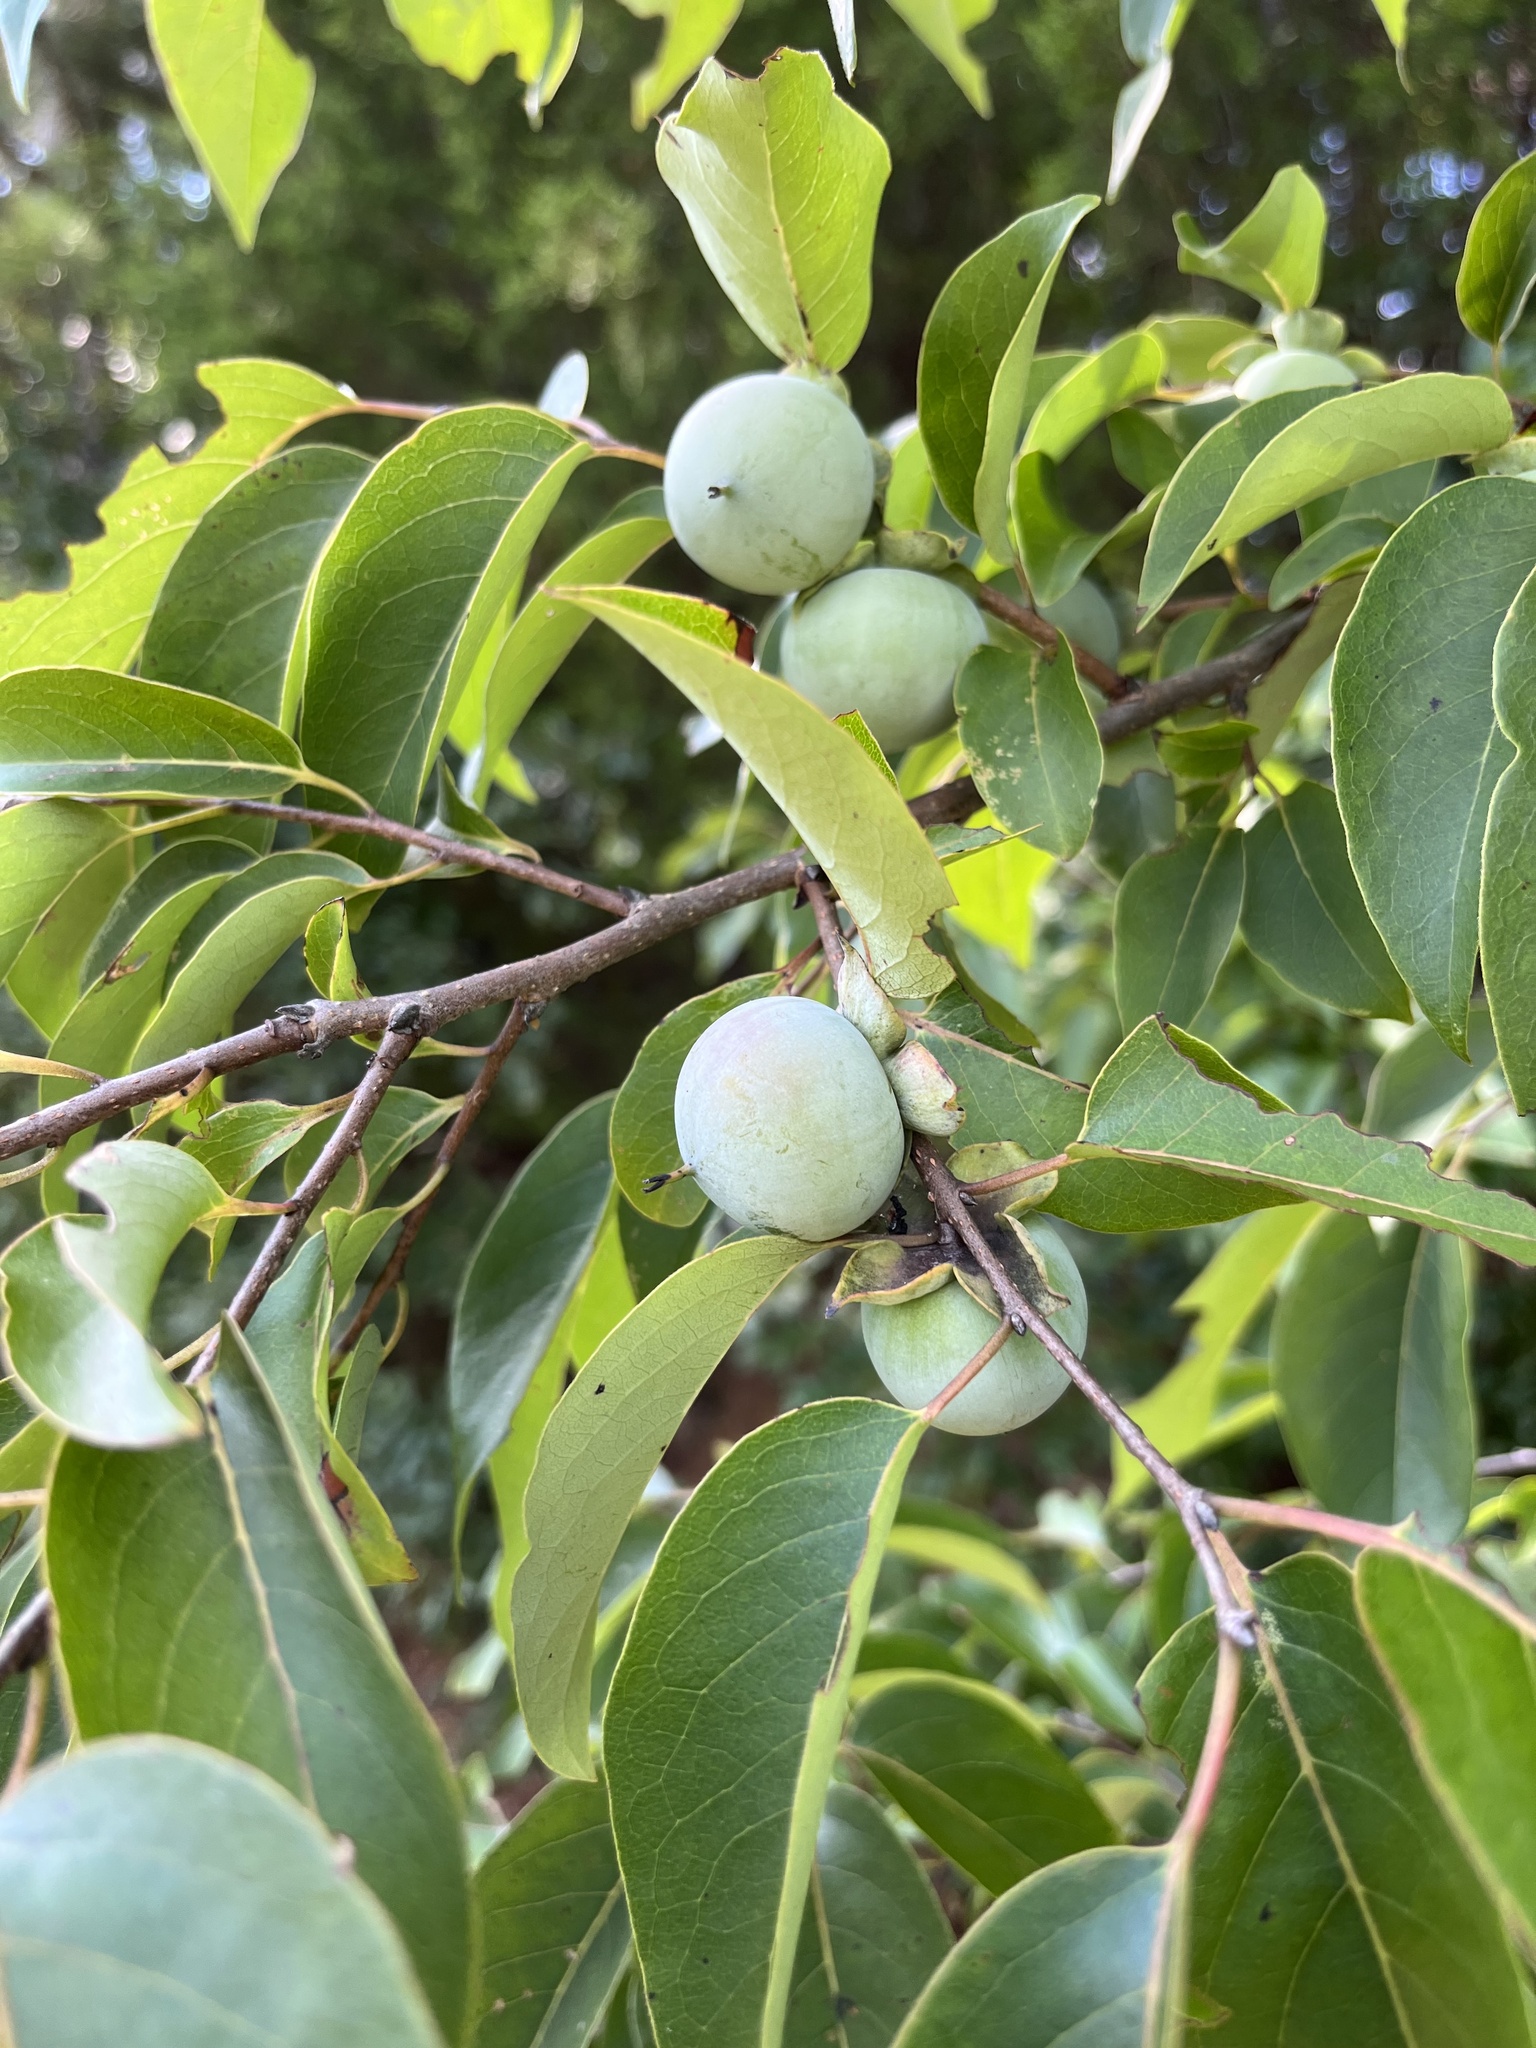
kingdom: Plantae
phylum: Tracheophyta
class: Magnoliopsida
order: Ericales
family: Ebenaceae
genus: Diospyros
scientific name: Diospyros virginiana
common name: Persimmon
